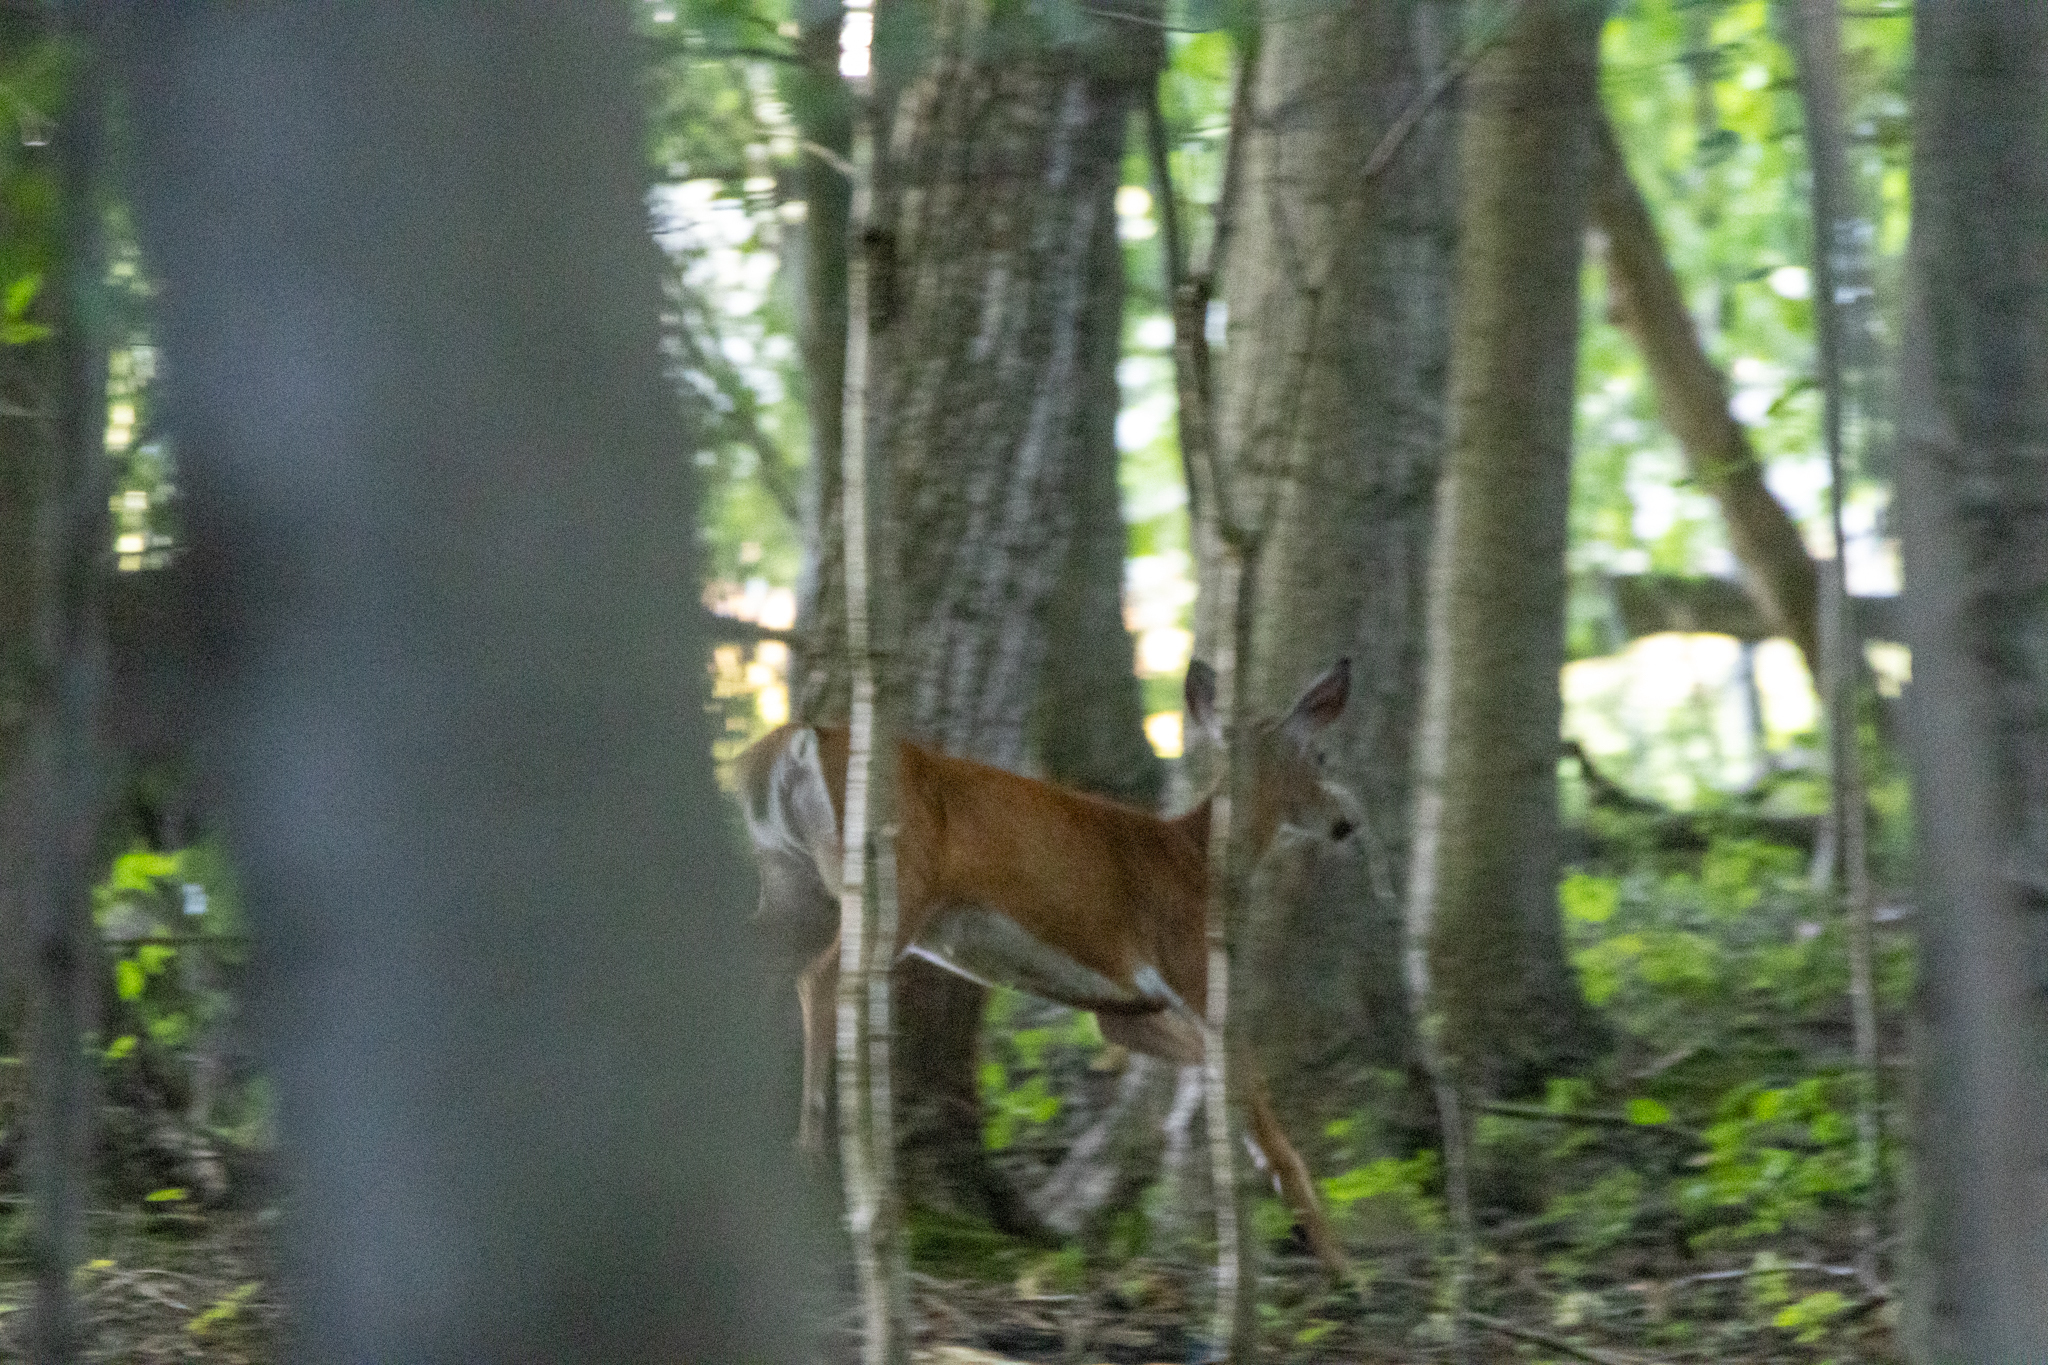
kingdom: Animalia
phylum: Chordata
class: Mammalia
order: Artiodactyla
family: Cervidae
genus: Odocoileus
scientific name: Odocoileus virginianus
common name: White-tailed deer
